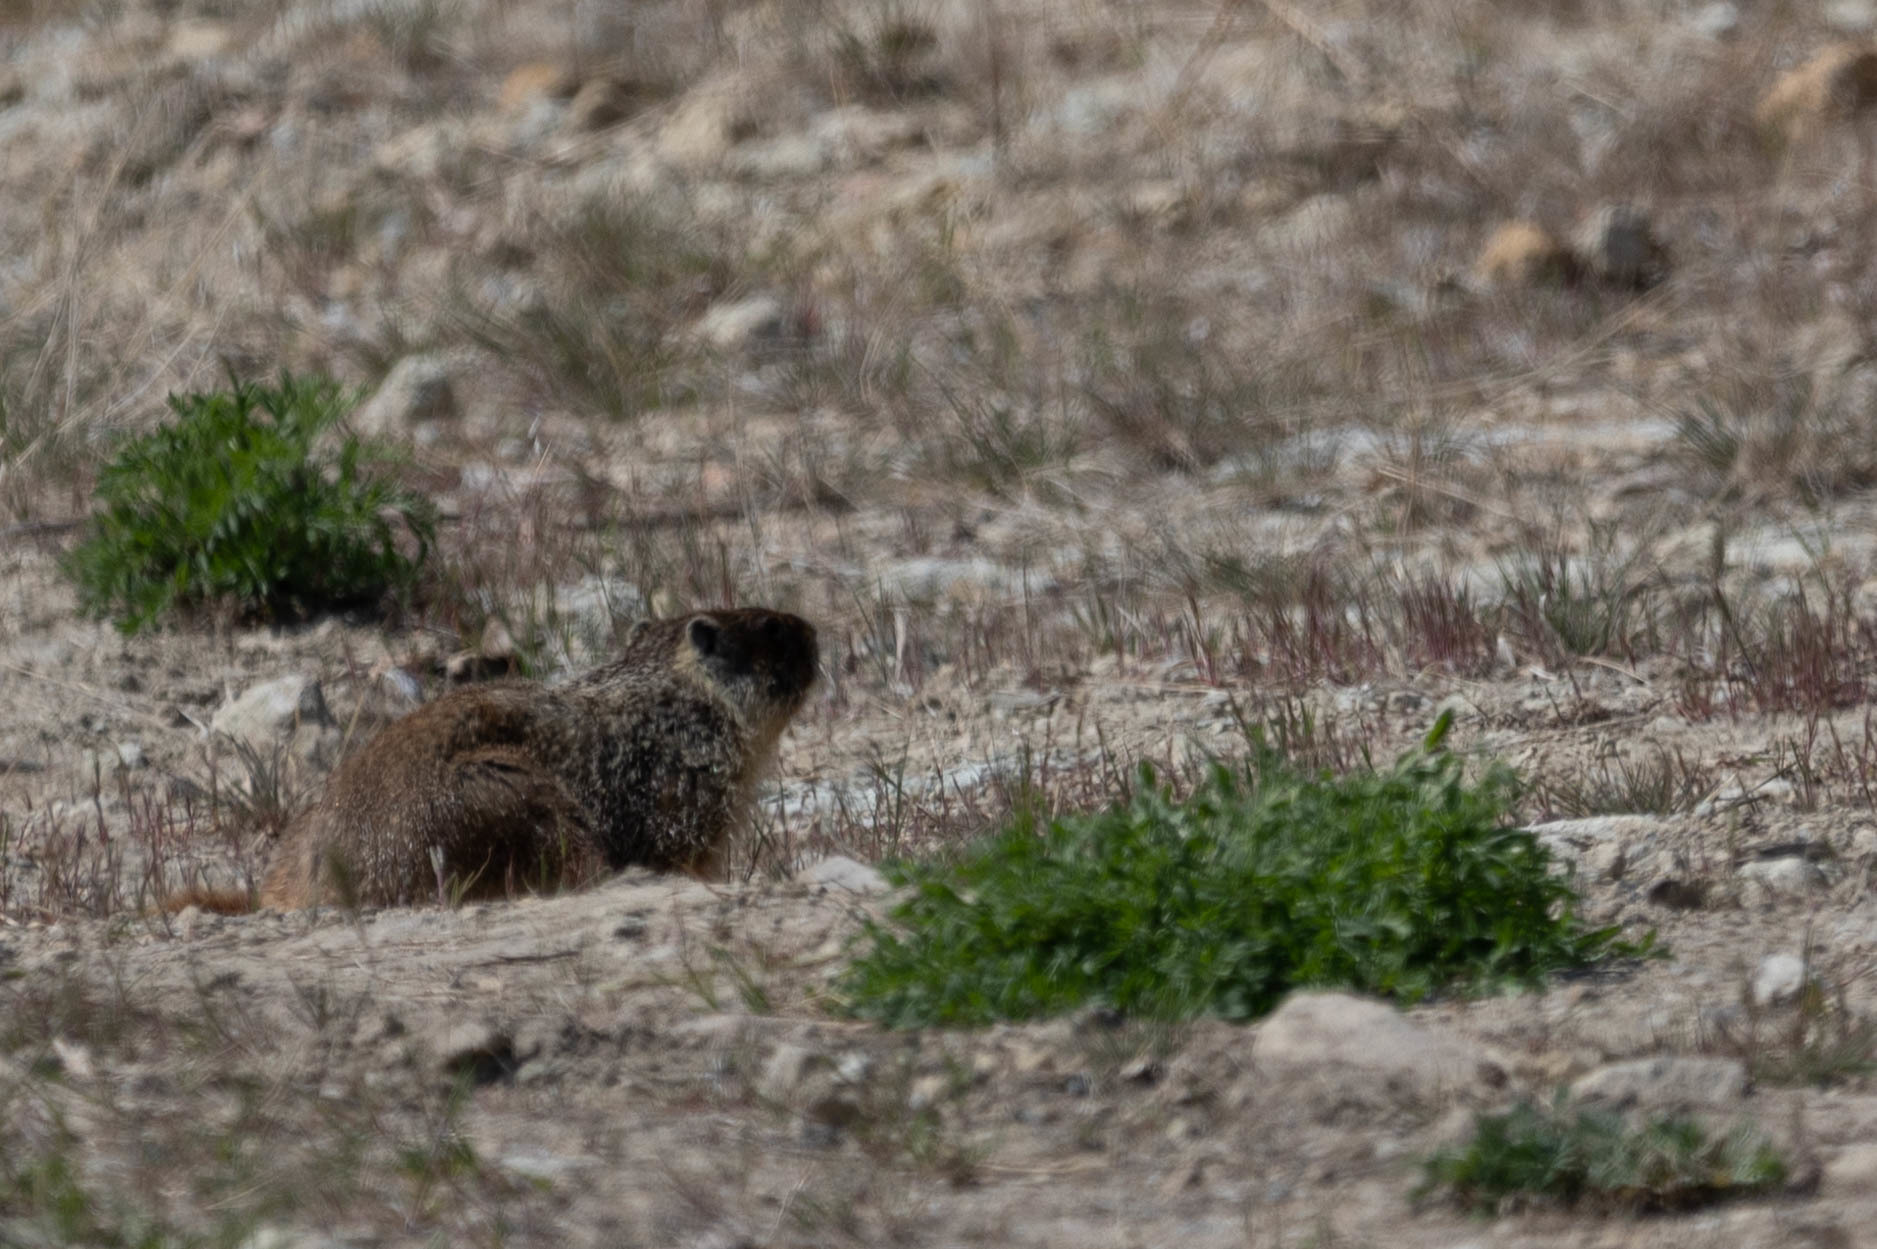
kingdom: Animalia
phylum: Chordata
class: Mammalia
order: Rodentia
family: Sciuridae
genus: Marmota
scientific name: Marmota flaviventris
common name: Yellow-bellied marmot
